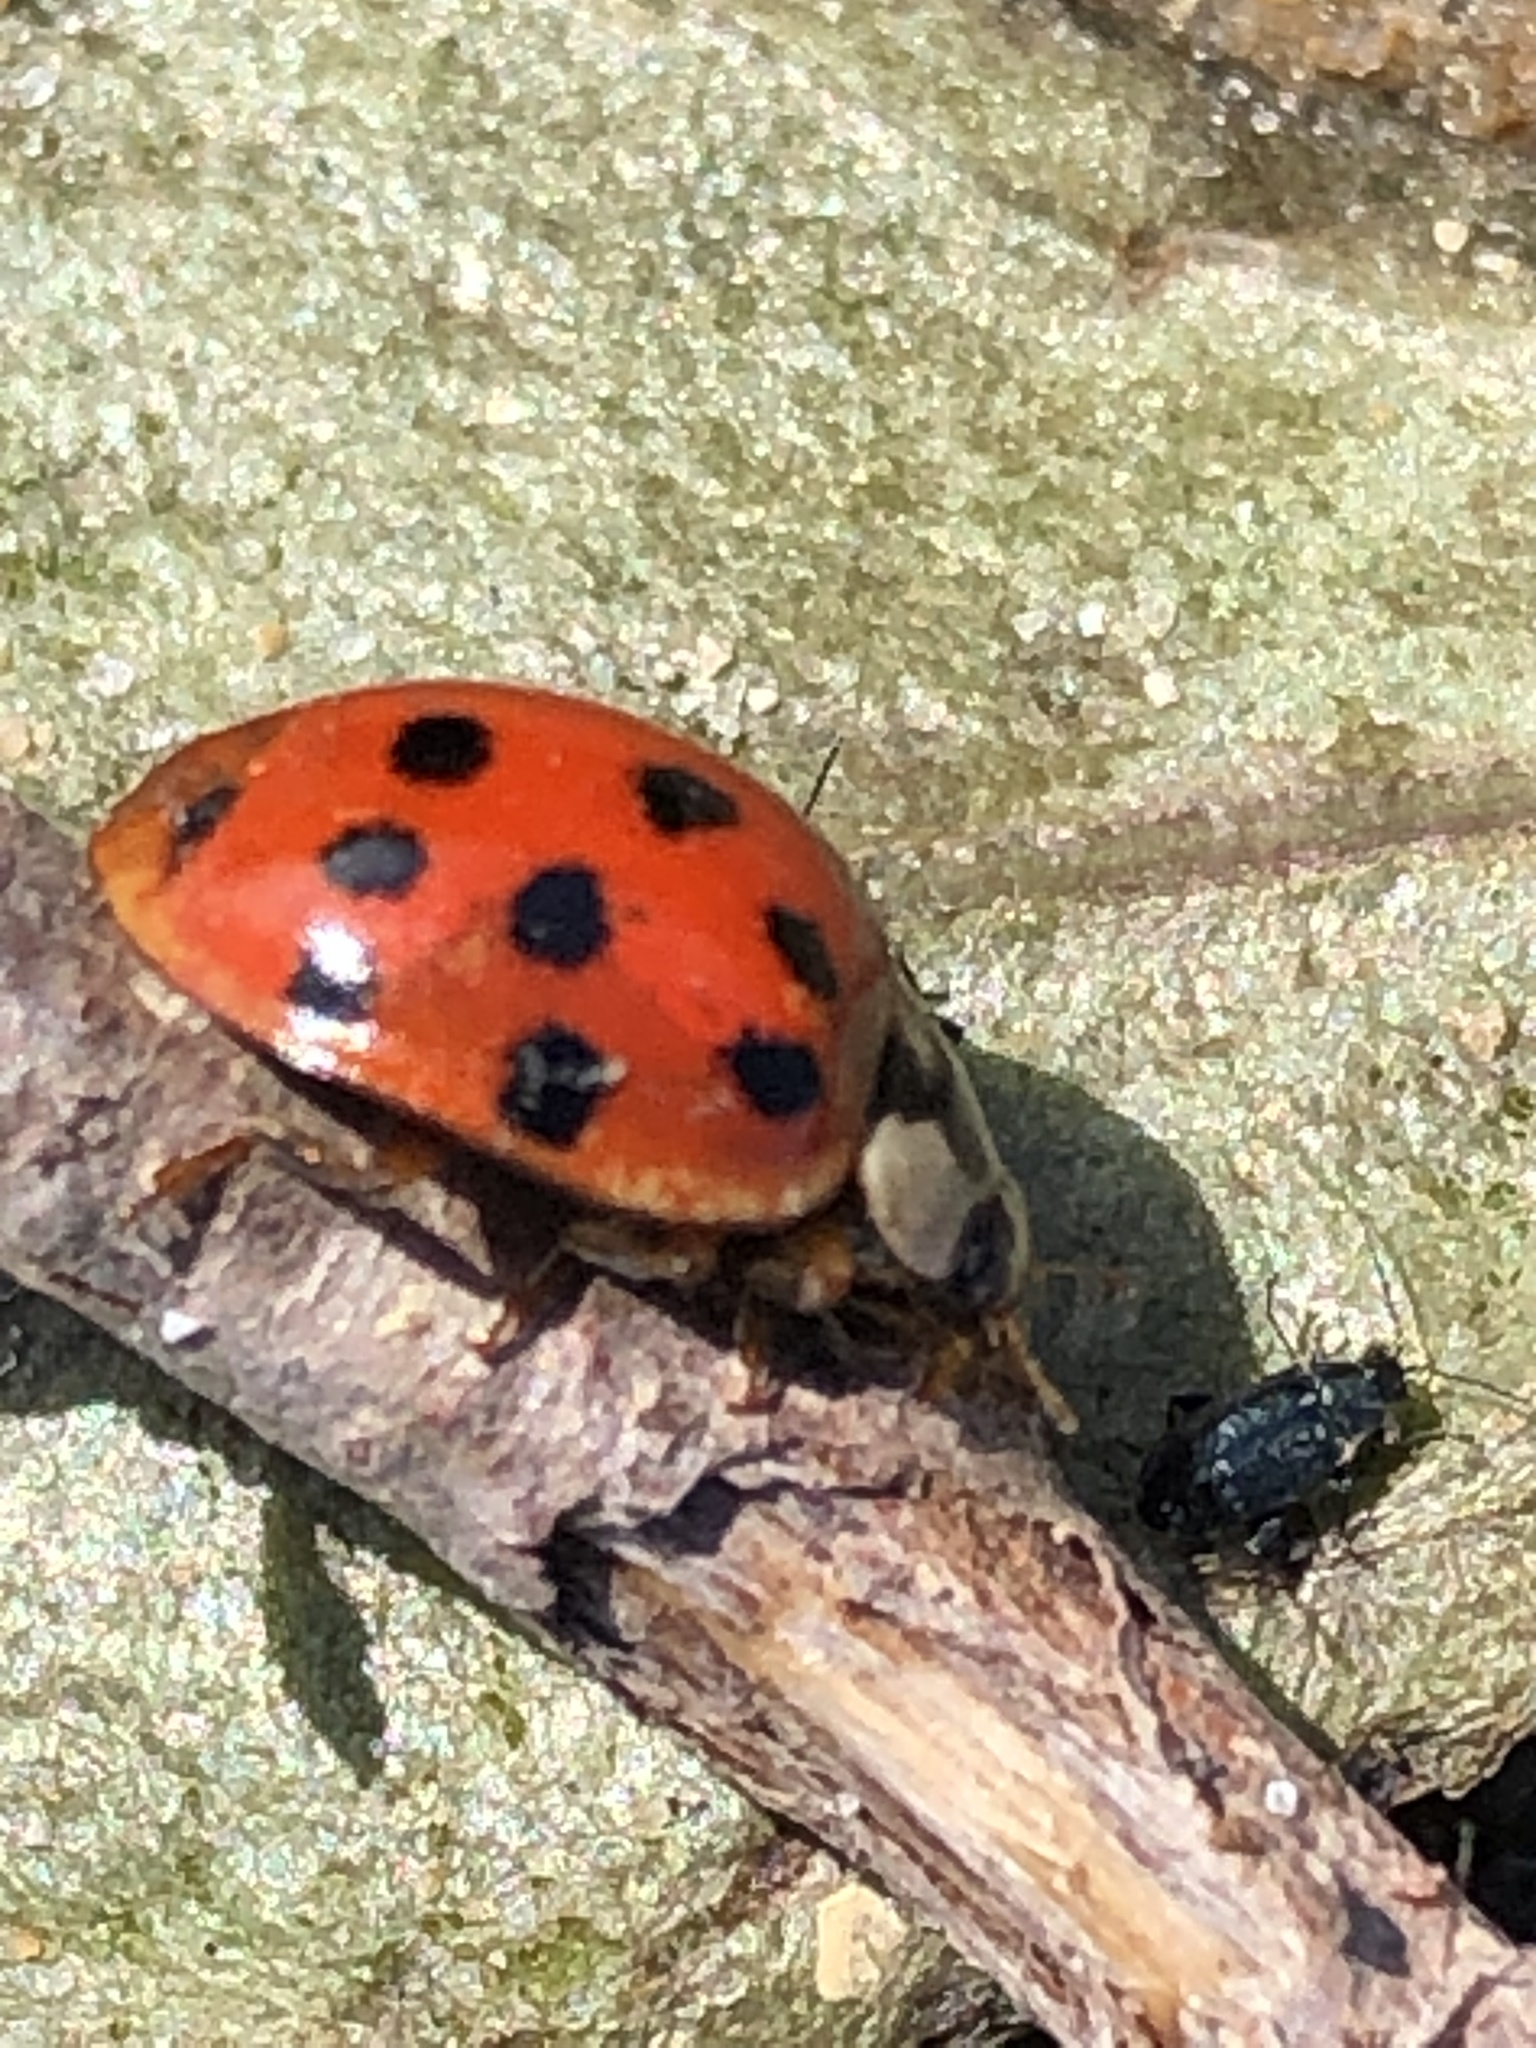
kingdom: Animalia
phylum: Arthropoda
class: Insecta
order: Coleoptera
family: Coccinellidae
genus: Harmonia
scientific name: Harmonia axyridis
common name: Harlequin ladybird
